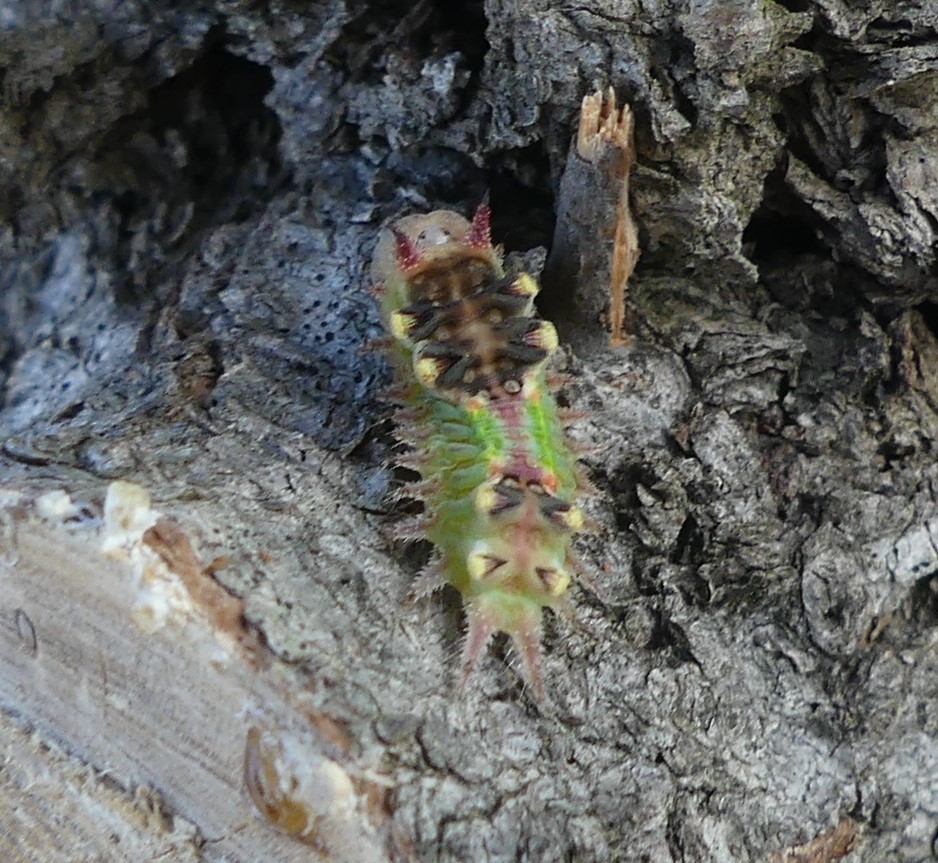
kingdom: Animalia
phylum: Arthropoda
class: Insecta
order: Lepidoptera
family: Limacodidae
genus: Doratifera
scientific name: Doratifera oxleyi
